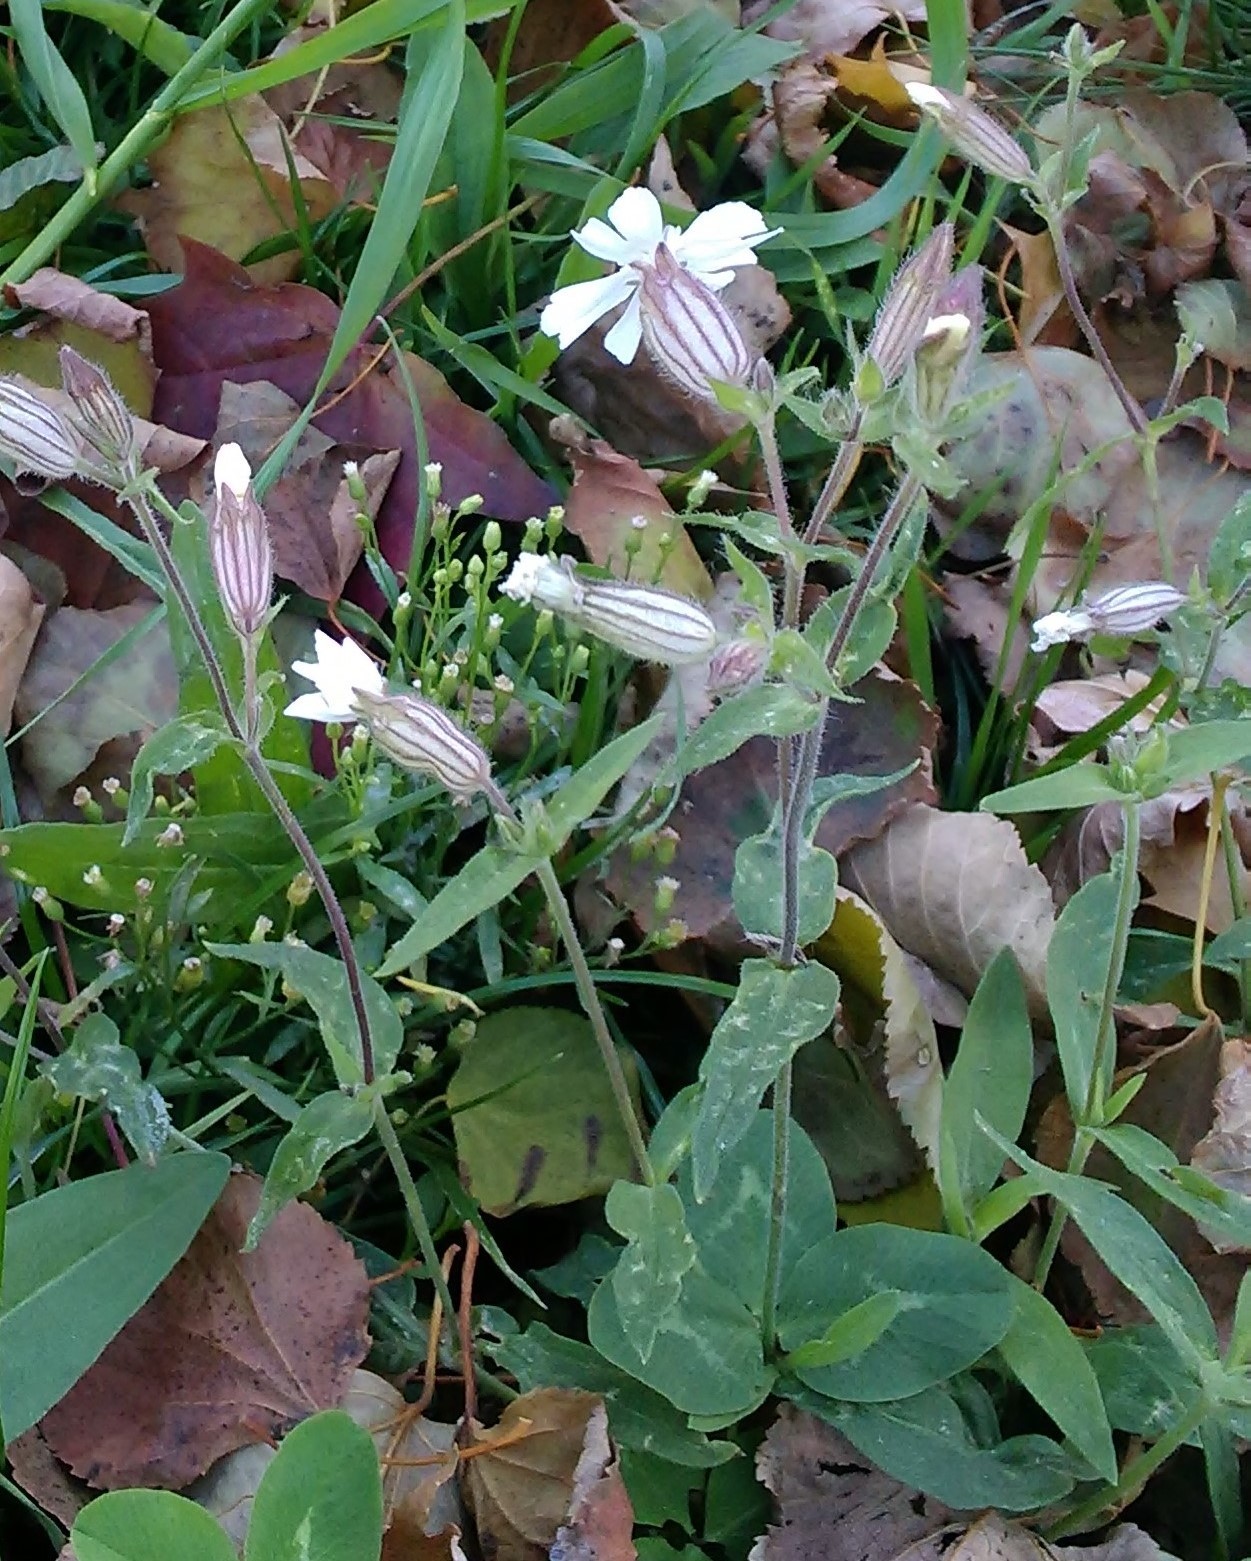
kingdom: Plantae
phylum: Tracheophyta
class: Magnoliopsida
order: Caryophyllales
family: Caryophyllaceae
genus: Silene
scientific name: Silene latifolia
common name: White campion
